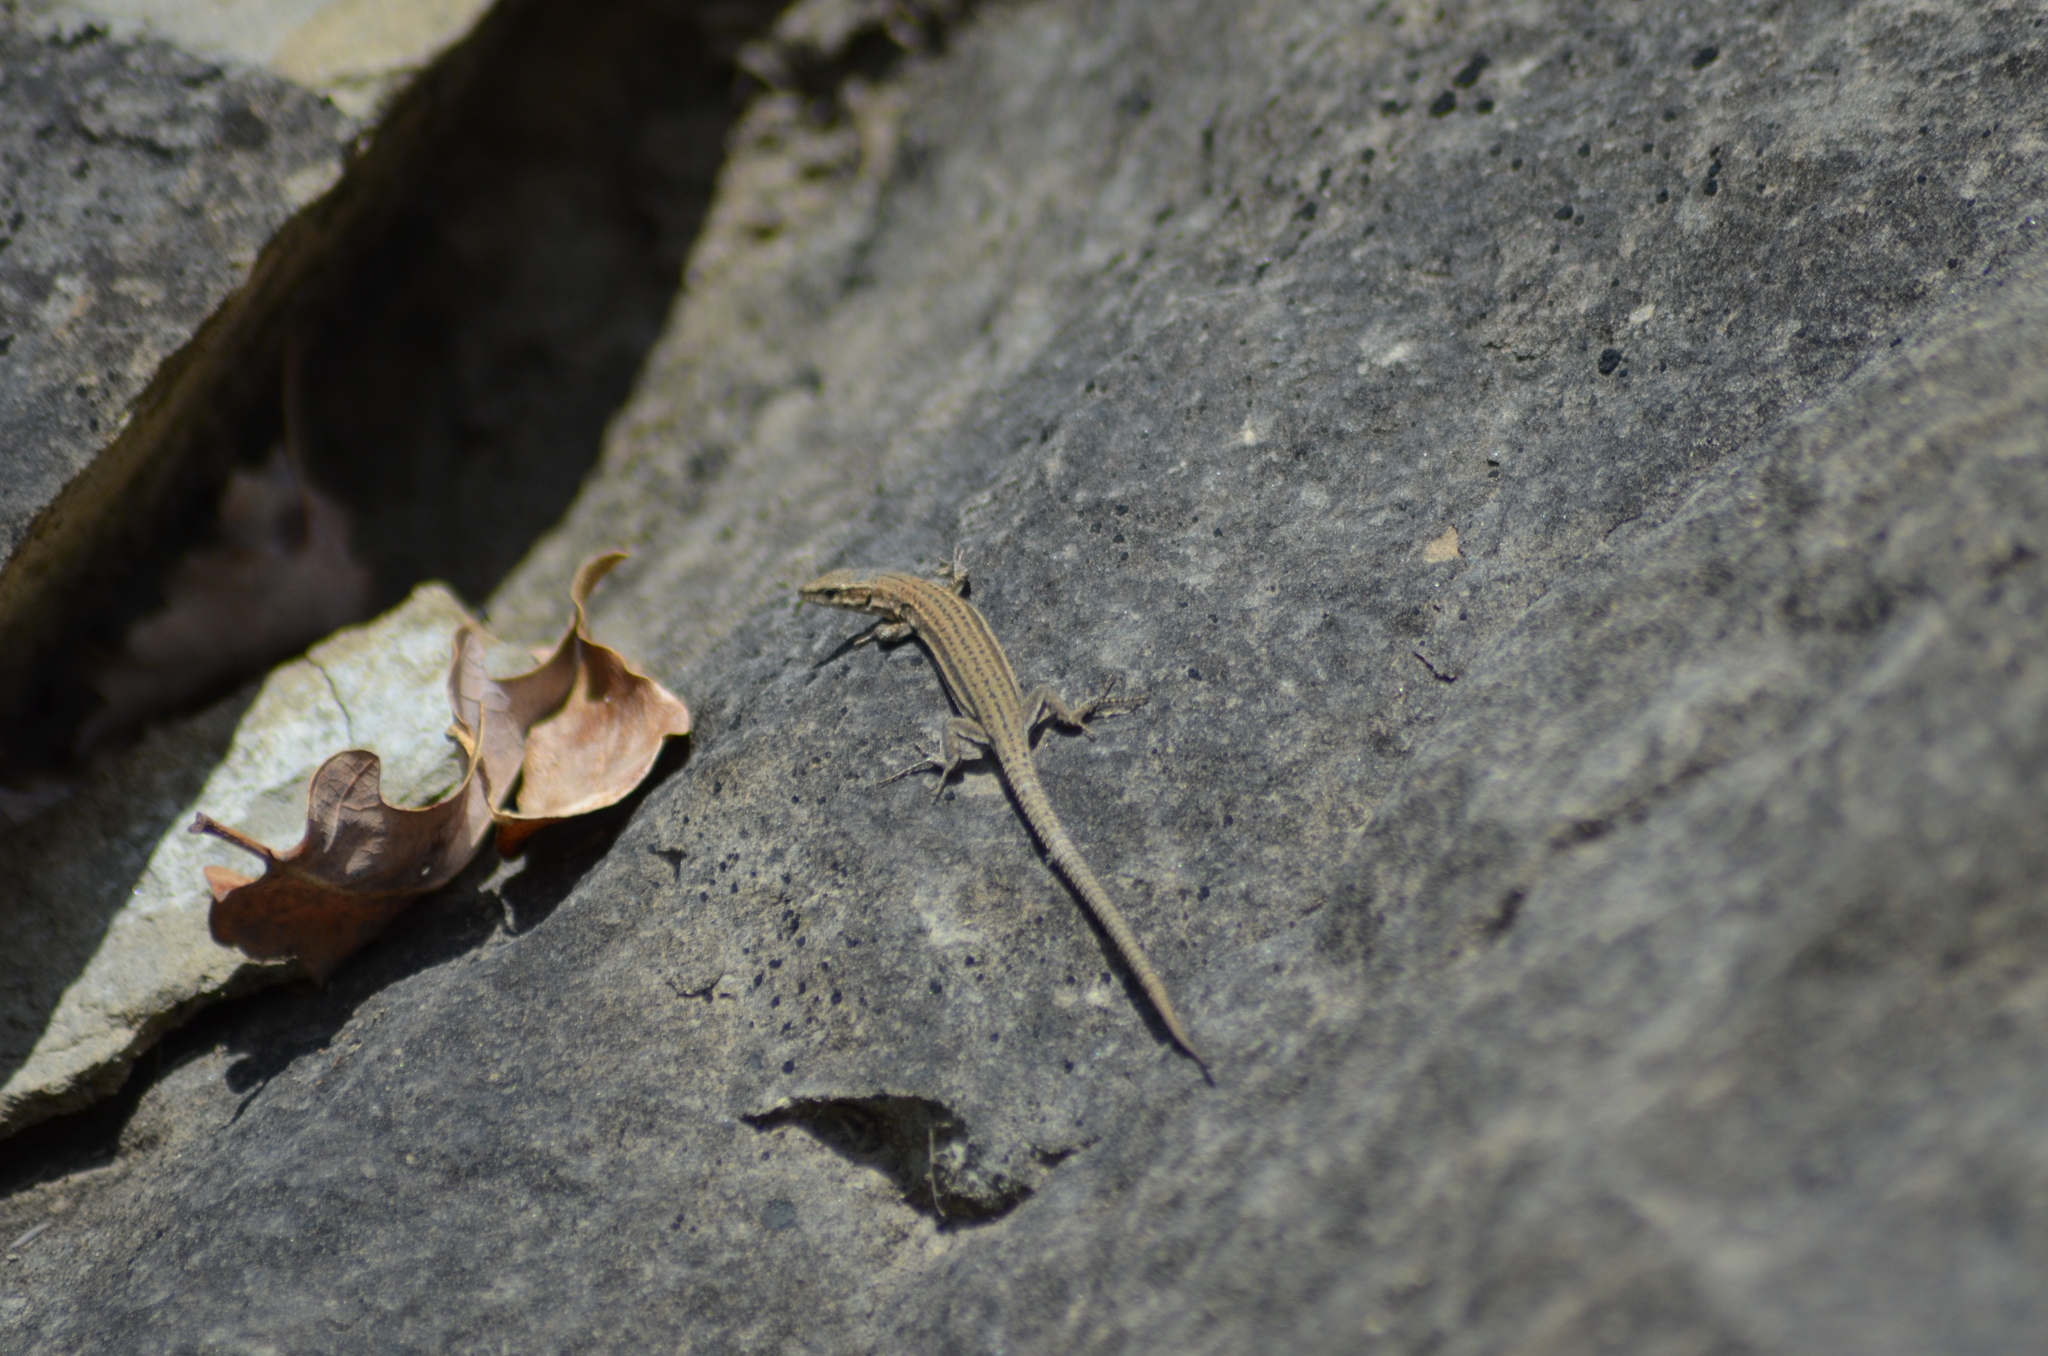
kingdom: Animalia
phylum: Chordata
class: Squamata
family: Lacertidae
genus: Podarcis
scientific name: Podarcis liolepis
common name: Catalonian wall lizard
